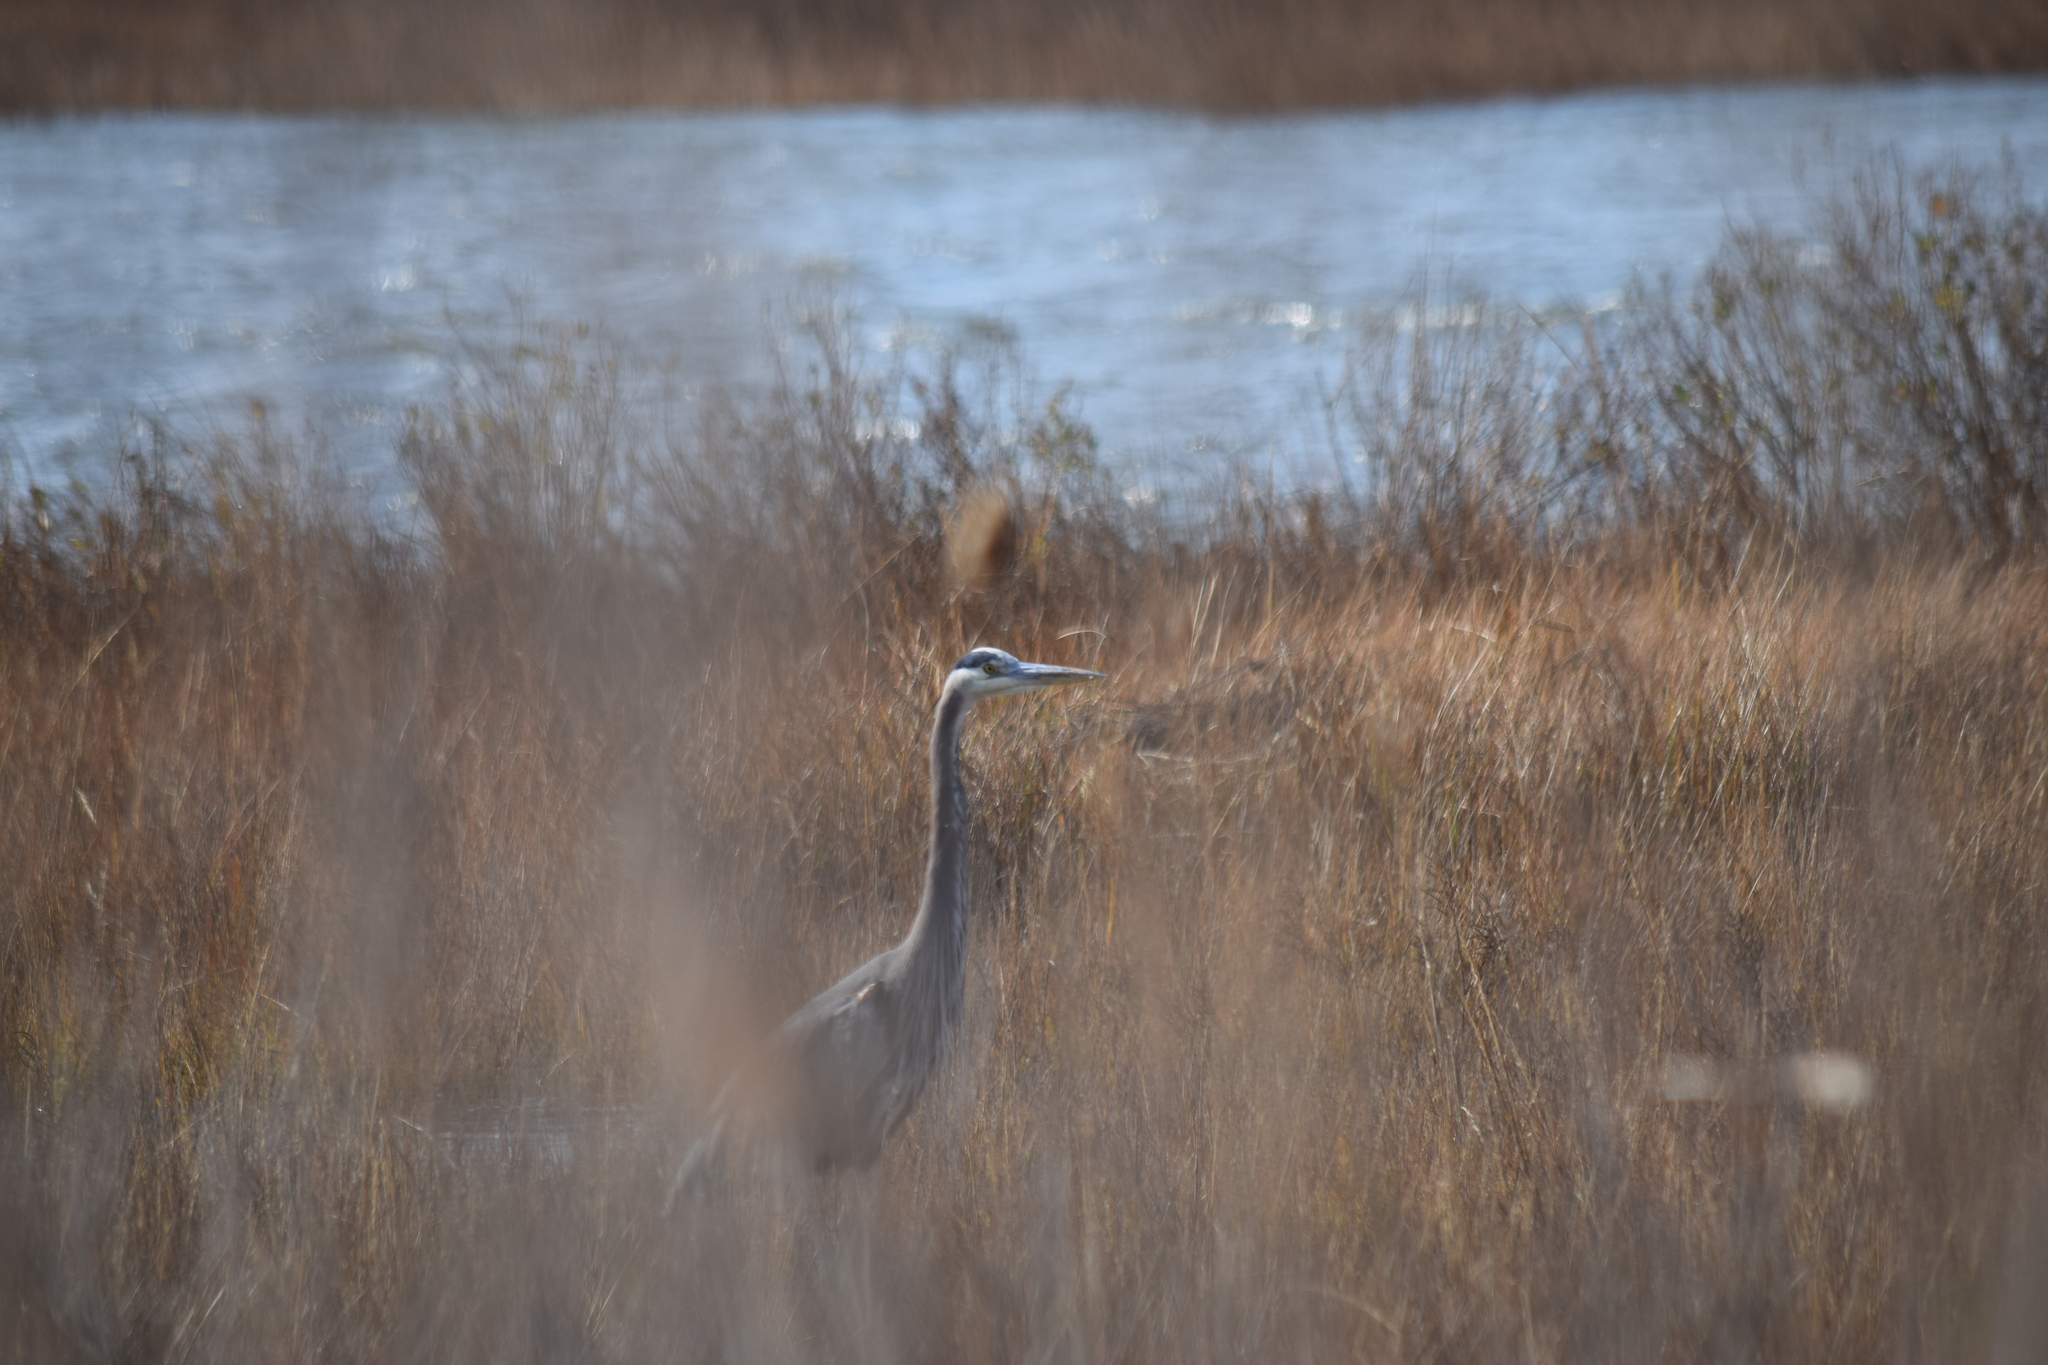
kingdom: Animalia
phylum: Chordata
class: Aves
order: Pelecaniformes
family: Ardeidae
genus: Ardea
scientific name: Ardea herodias
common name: Great blue heron
